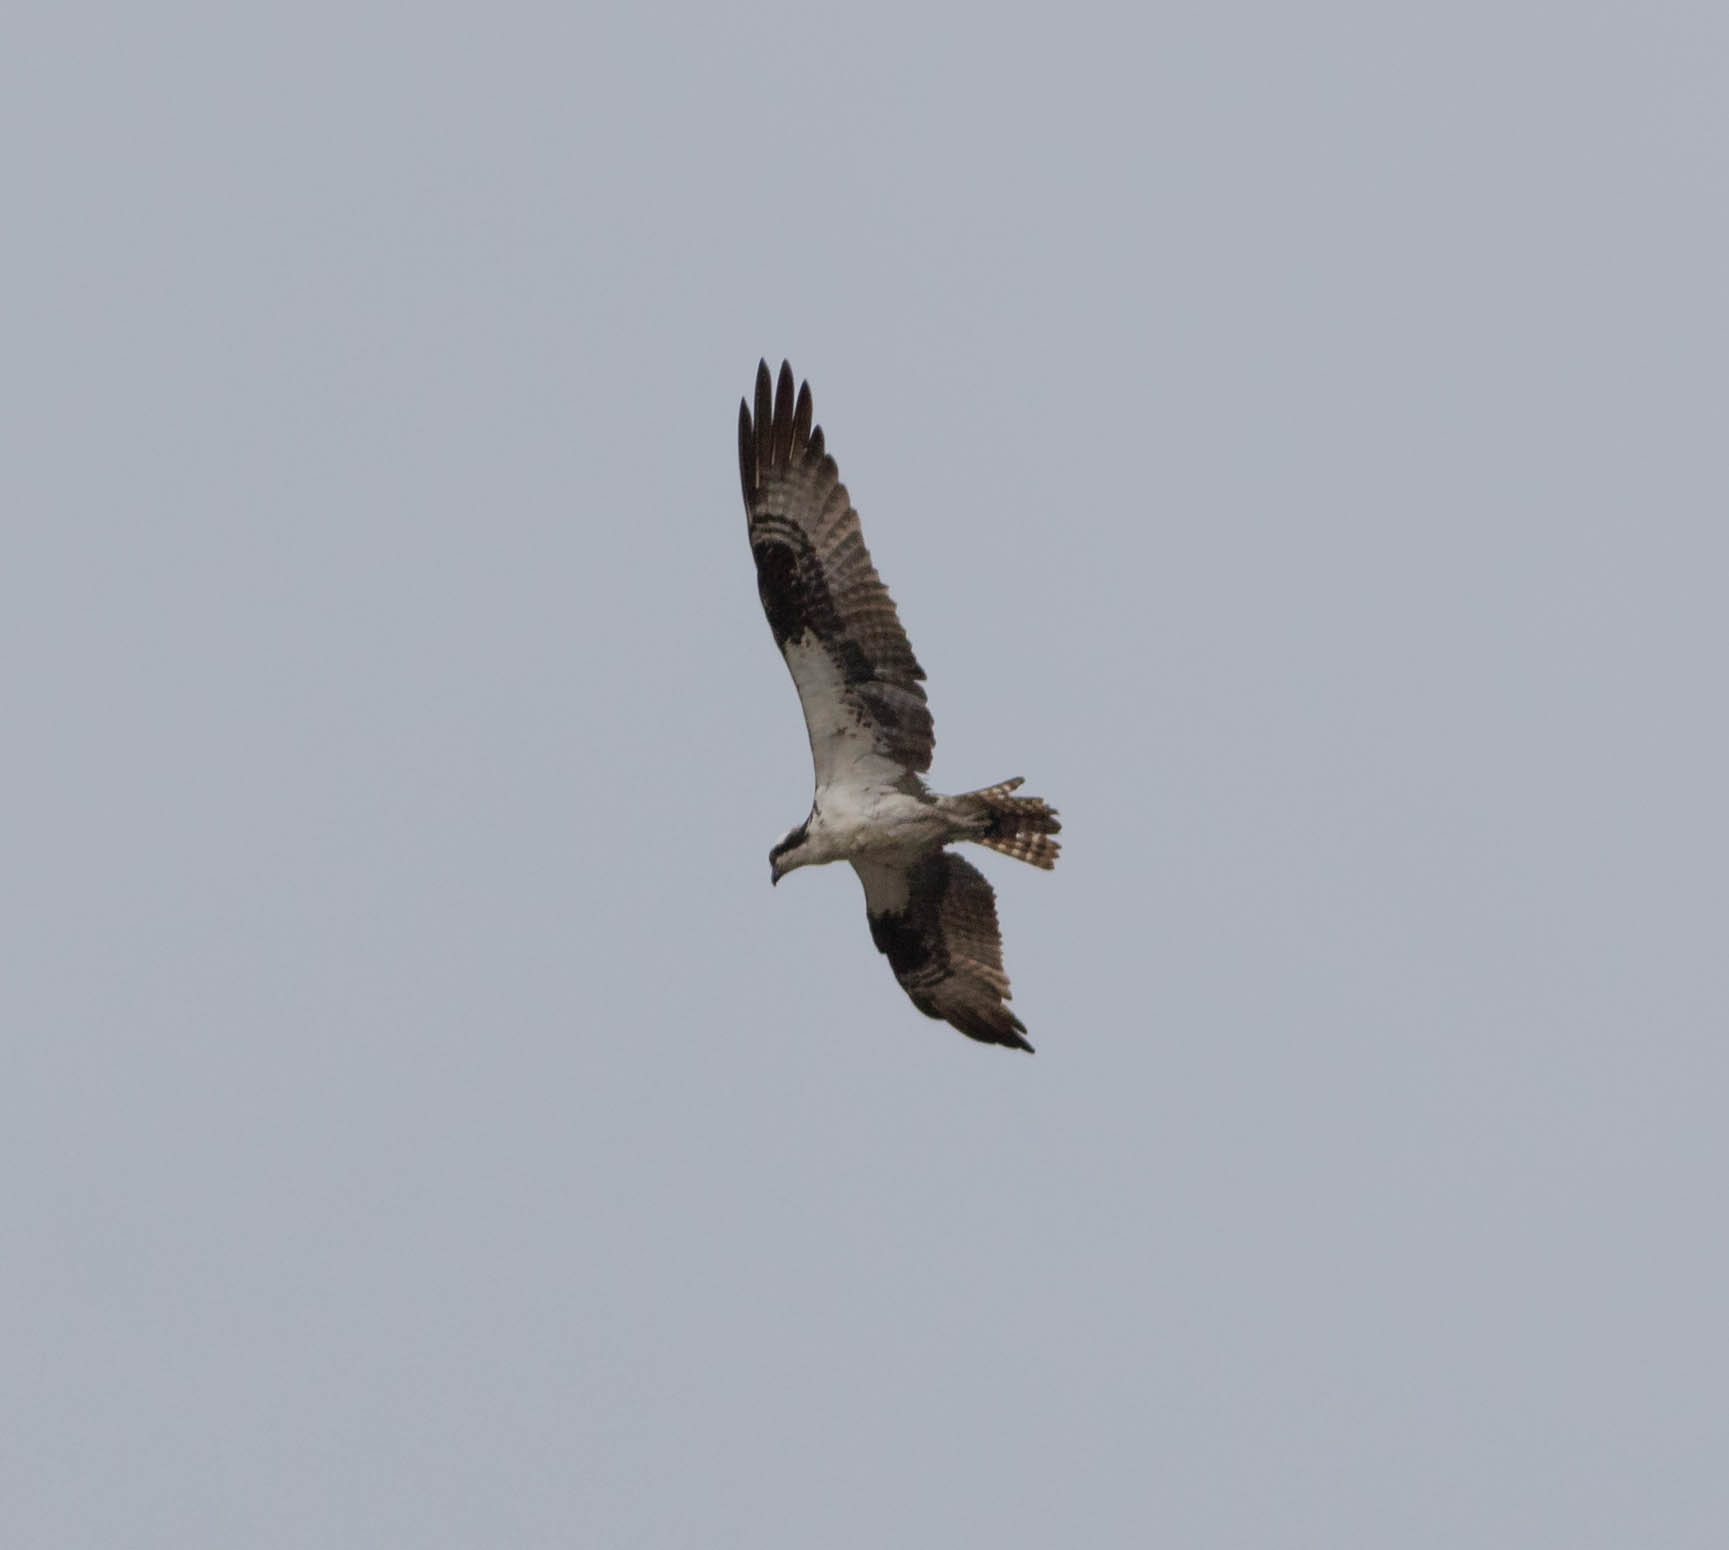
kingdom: Animalia
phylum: Chordata
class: Aves
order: Accipitriformes
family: Pandionidae
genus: Pandion
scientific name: Pandion haliaetus
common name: Osprey
